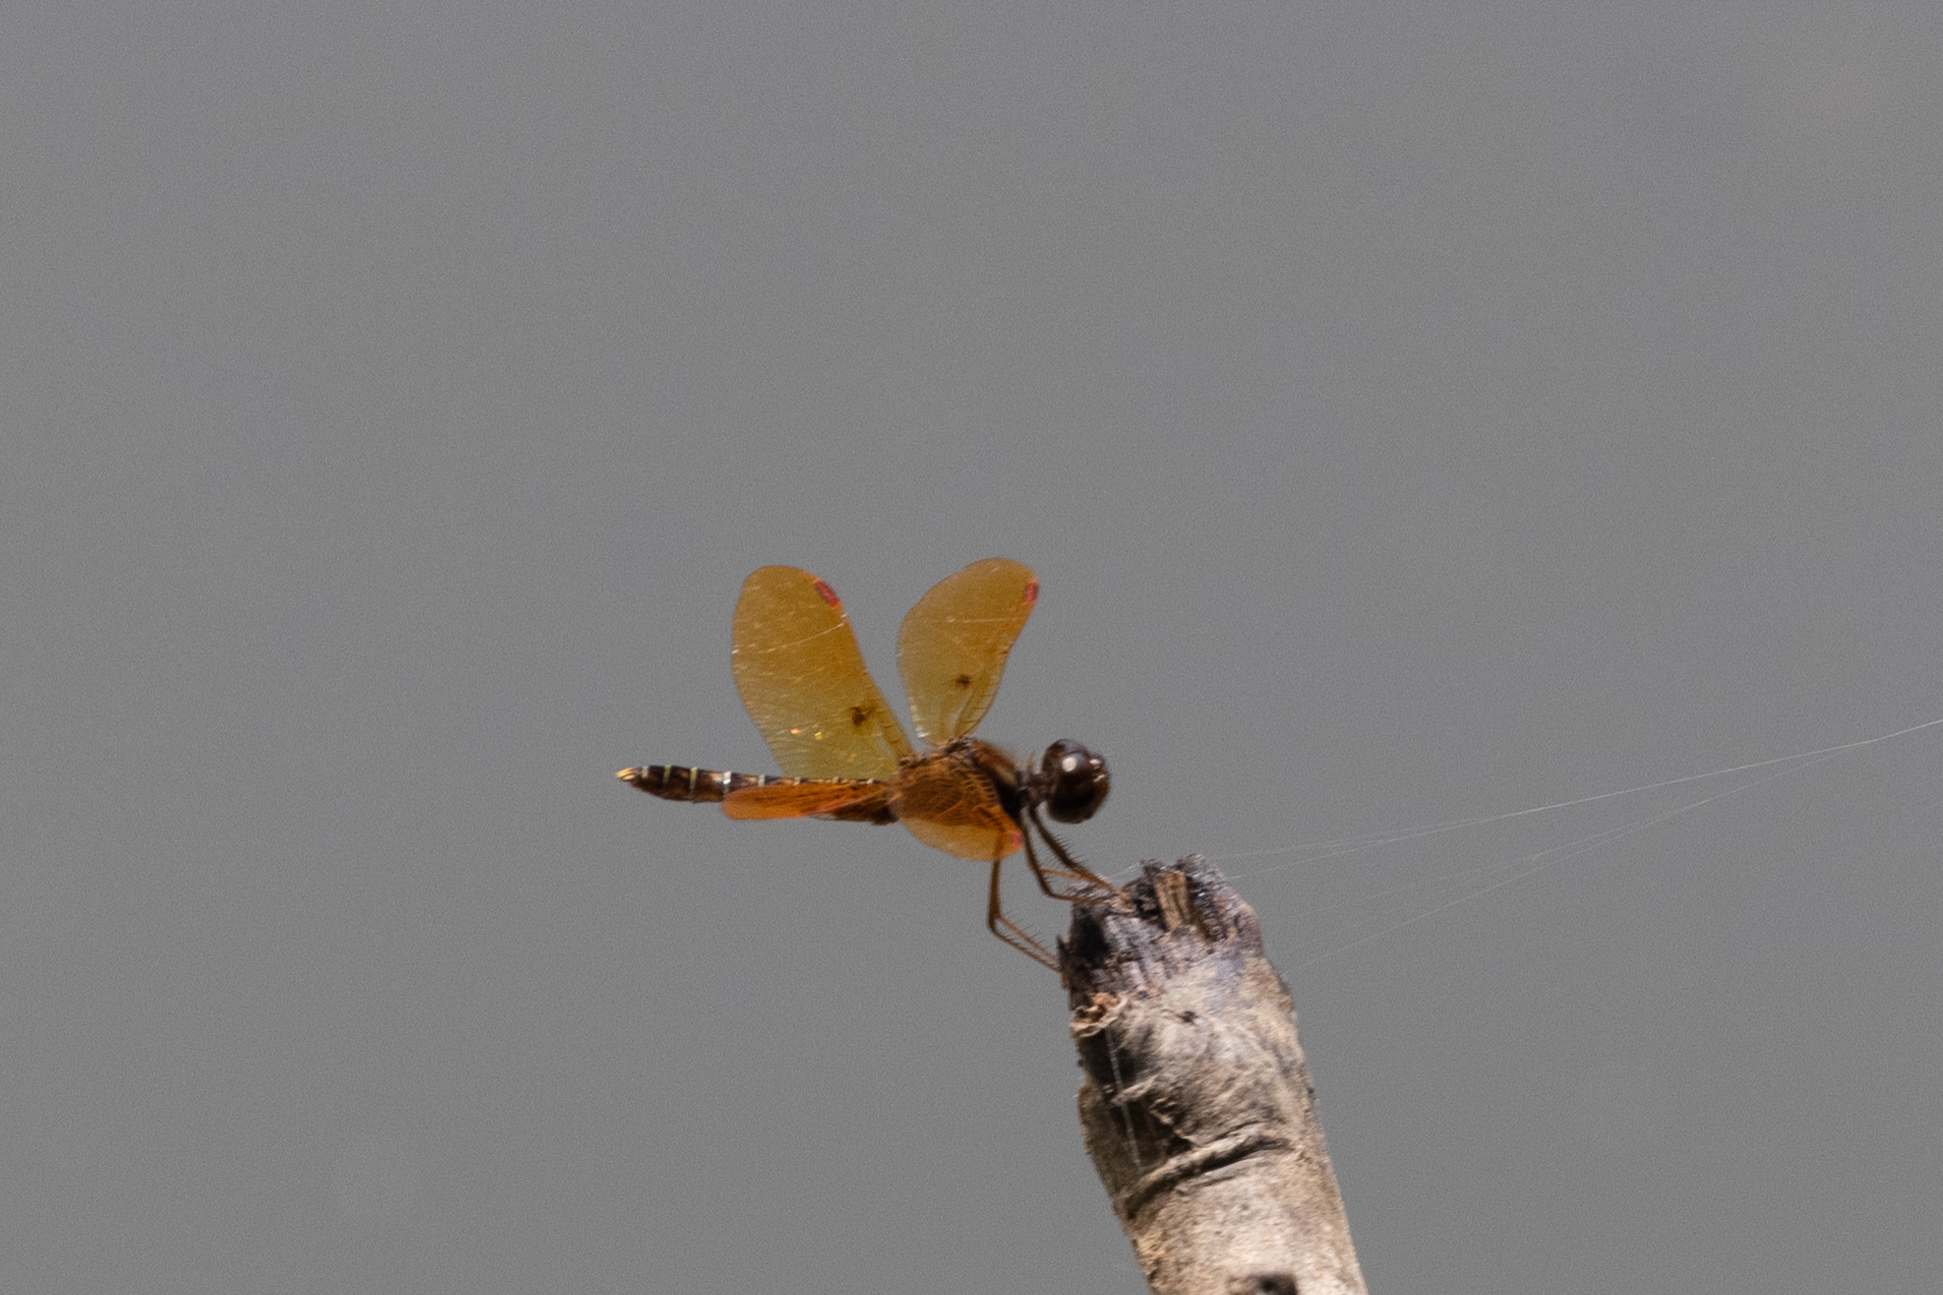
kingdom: Animalia
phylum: Arthropoda
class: Insecta
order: Odonata
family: Libellulidae
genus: Perithemis
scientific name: Perithemis tenera
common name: Eastern amberwing
